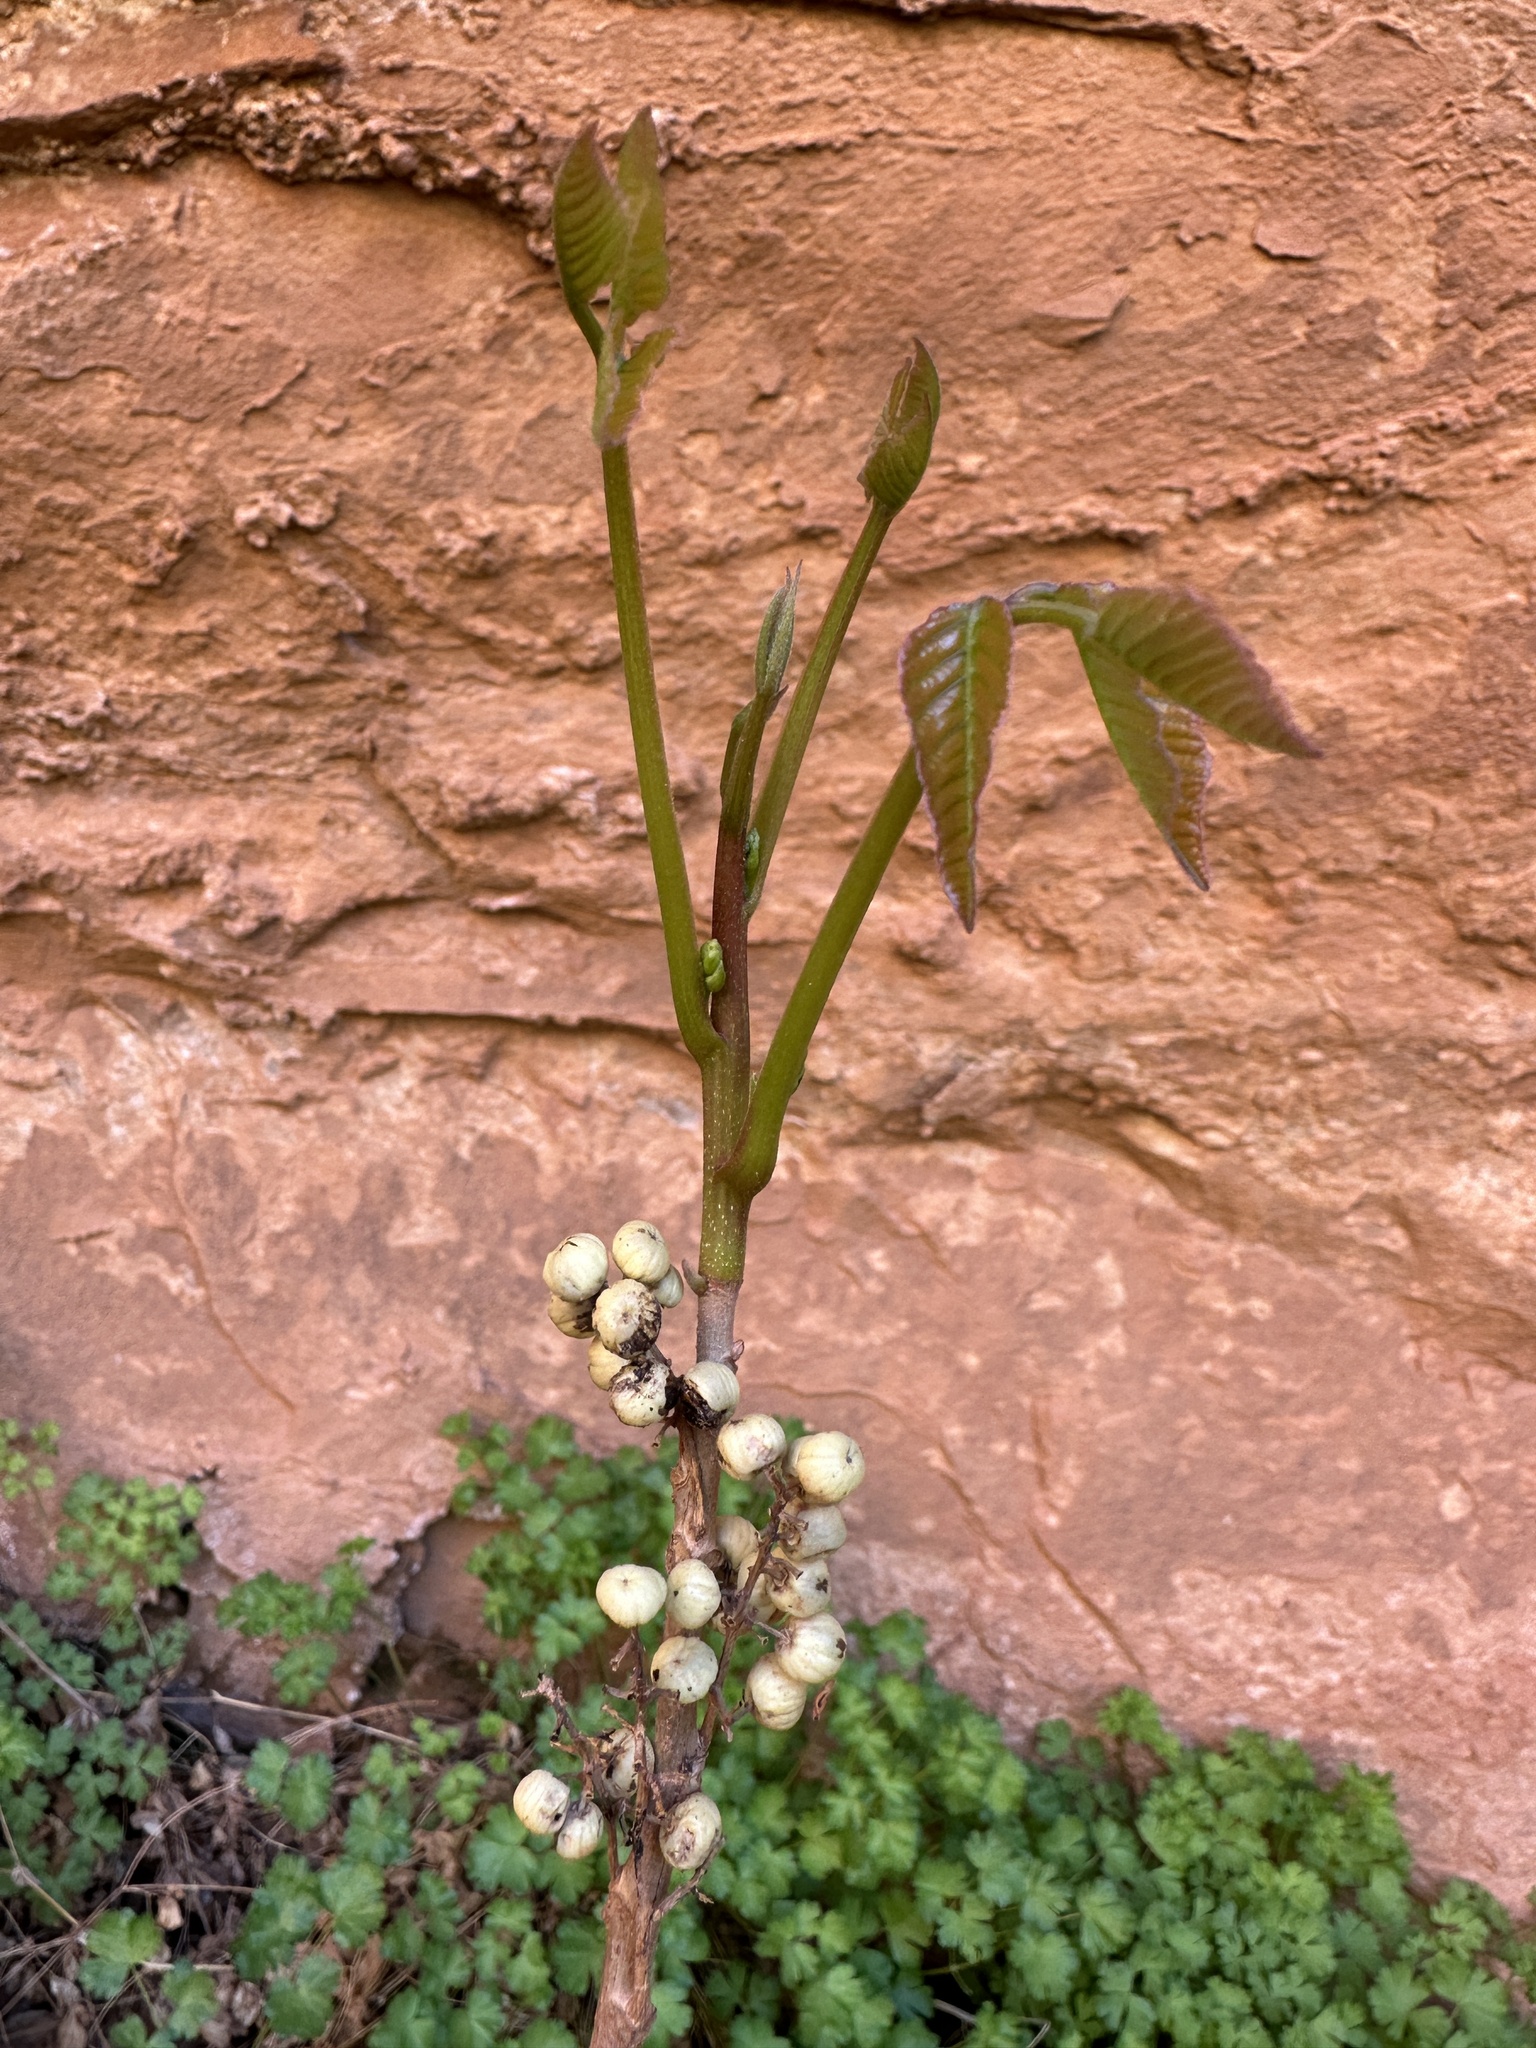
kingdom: Plantae
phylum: Tracheophyta
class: Magnoliopsida
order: Sapindales
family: Anacardiaceae
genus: Toxicodendron
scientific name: Toxicodendron rydbergii
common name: Rydberg's poison-ivy
